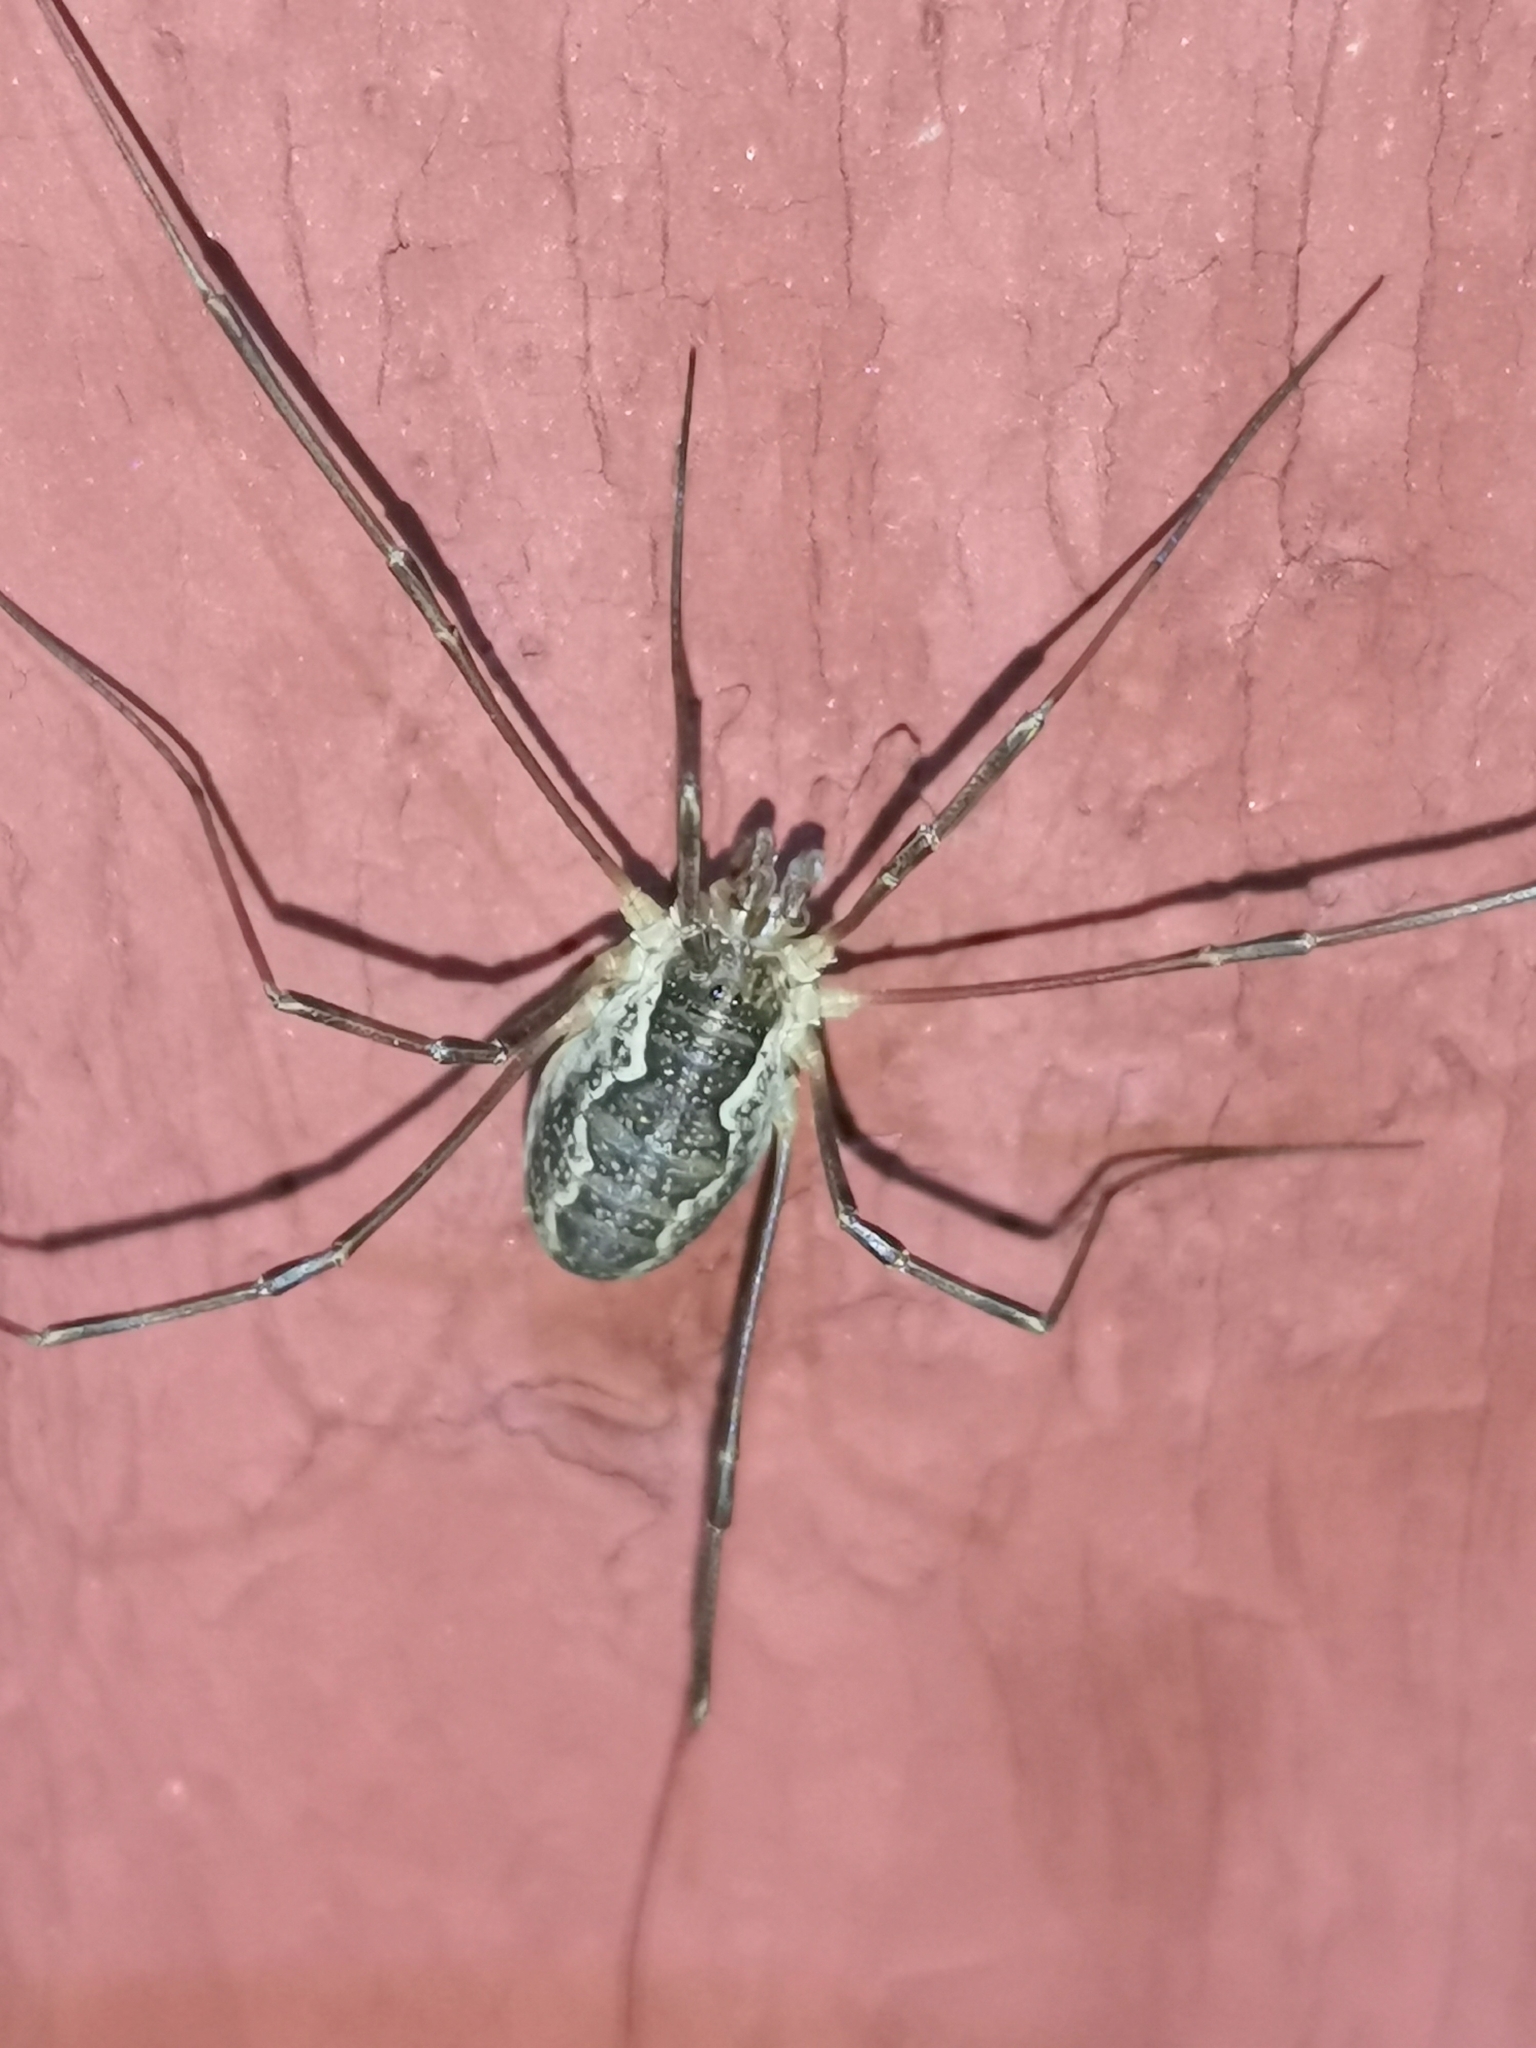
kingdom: Animalia
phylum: Arthropoda
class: Arachnida
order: Opiliones
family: Phalangiidae
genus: Mitopus
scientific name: Mitopus morio
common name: Saddleback harvestman
